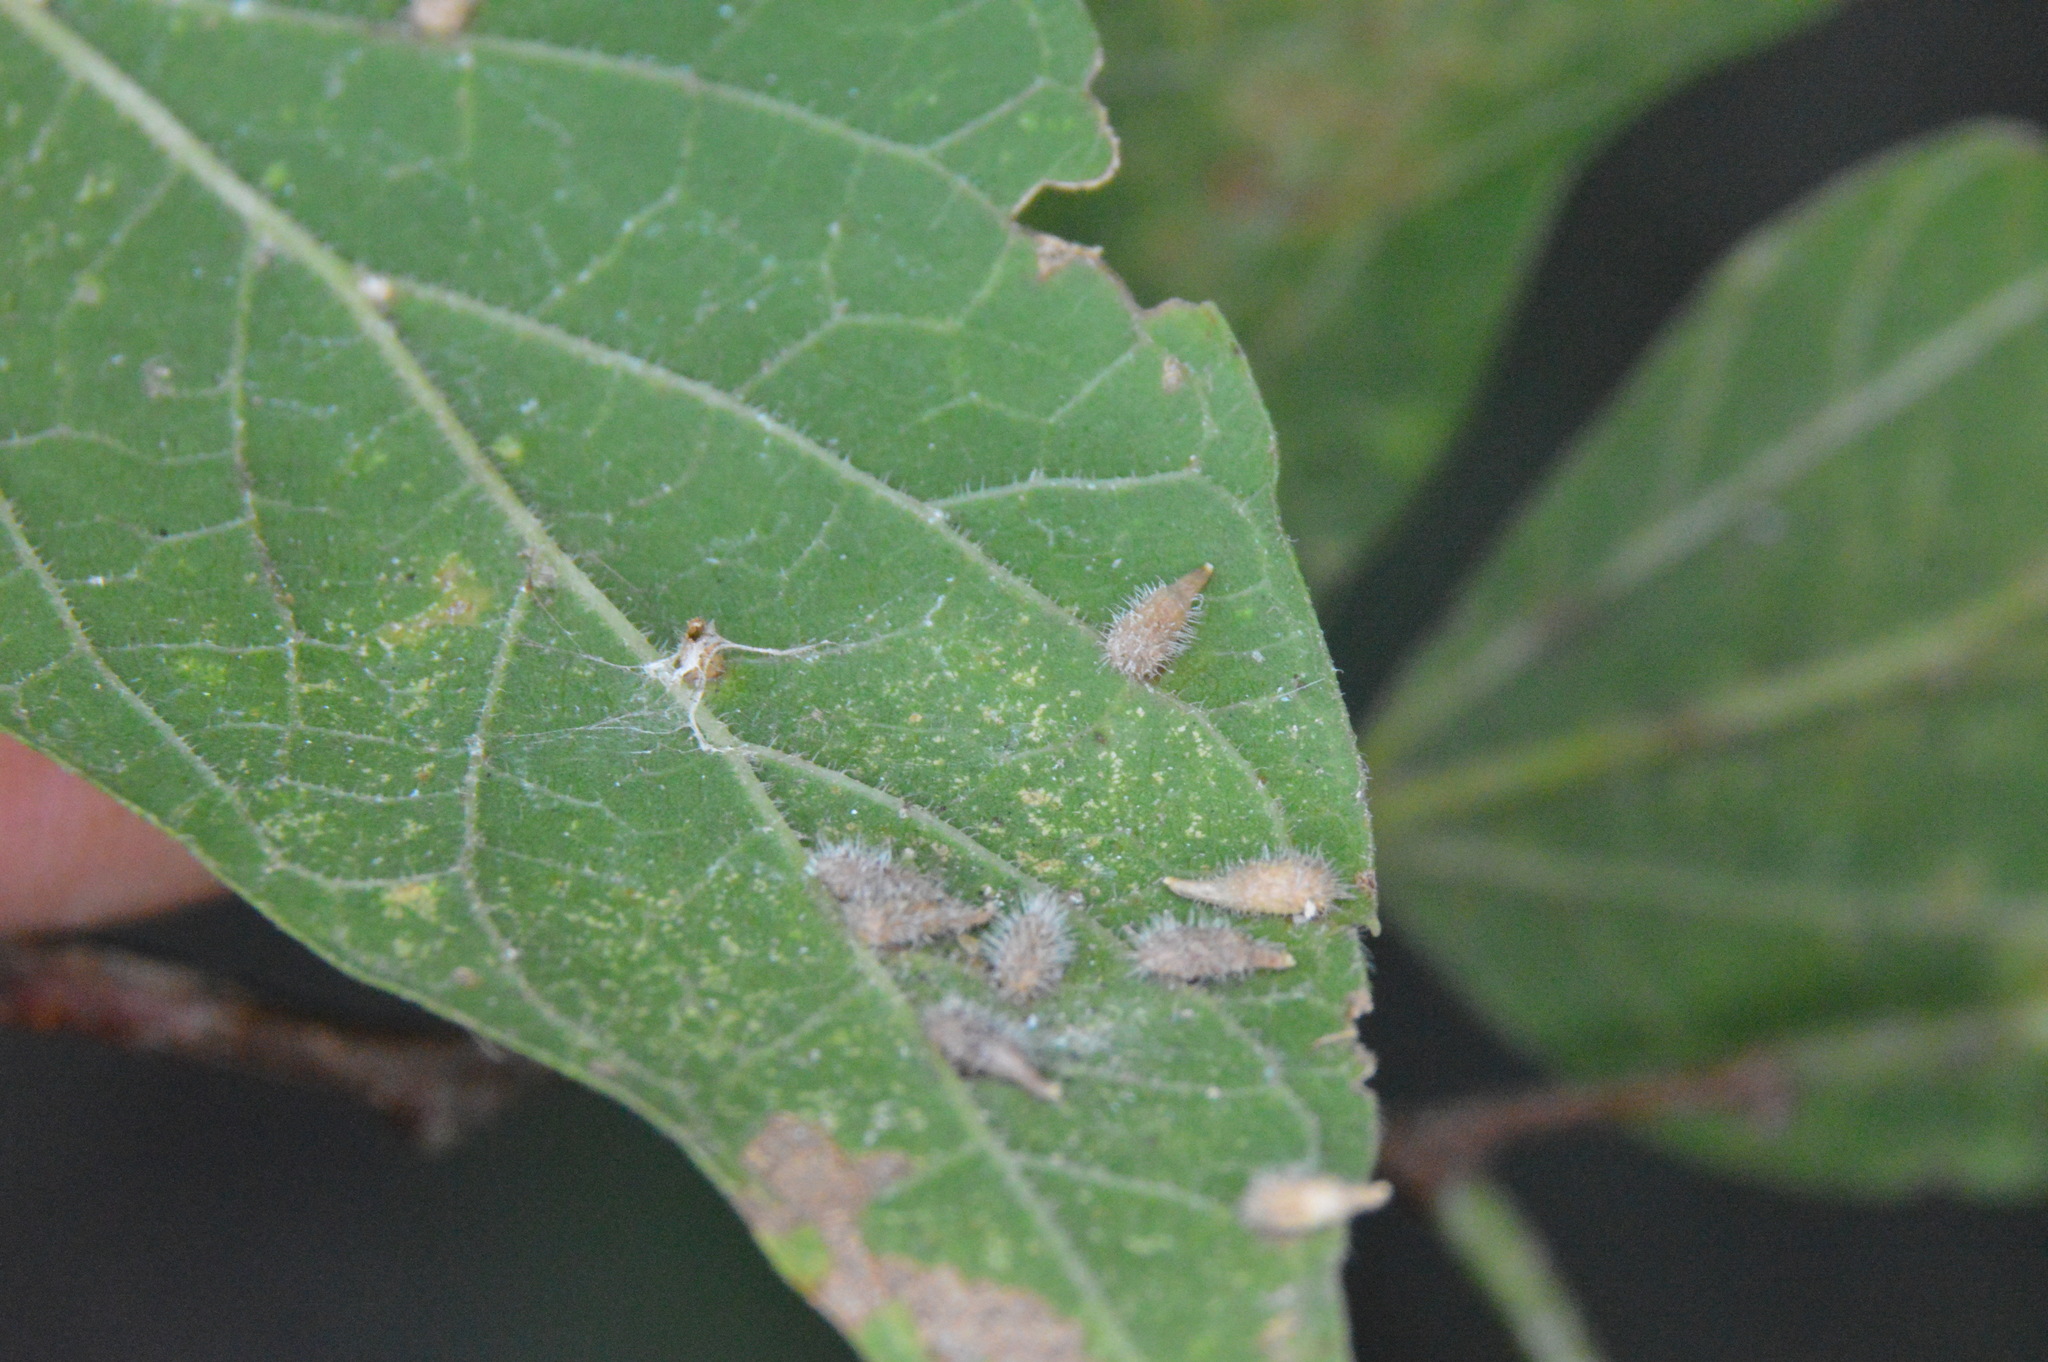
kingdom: Animalia
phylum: Arthropoda
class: Insecta
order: Diptera
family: Cecidomyiidae
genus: Celticecis
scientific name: Celticecis supina
